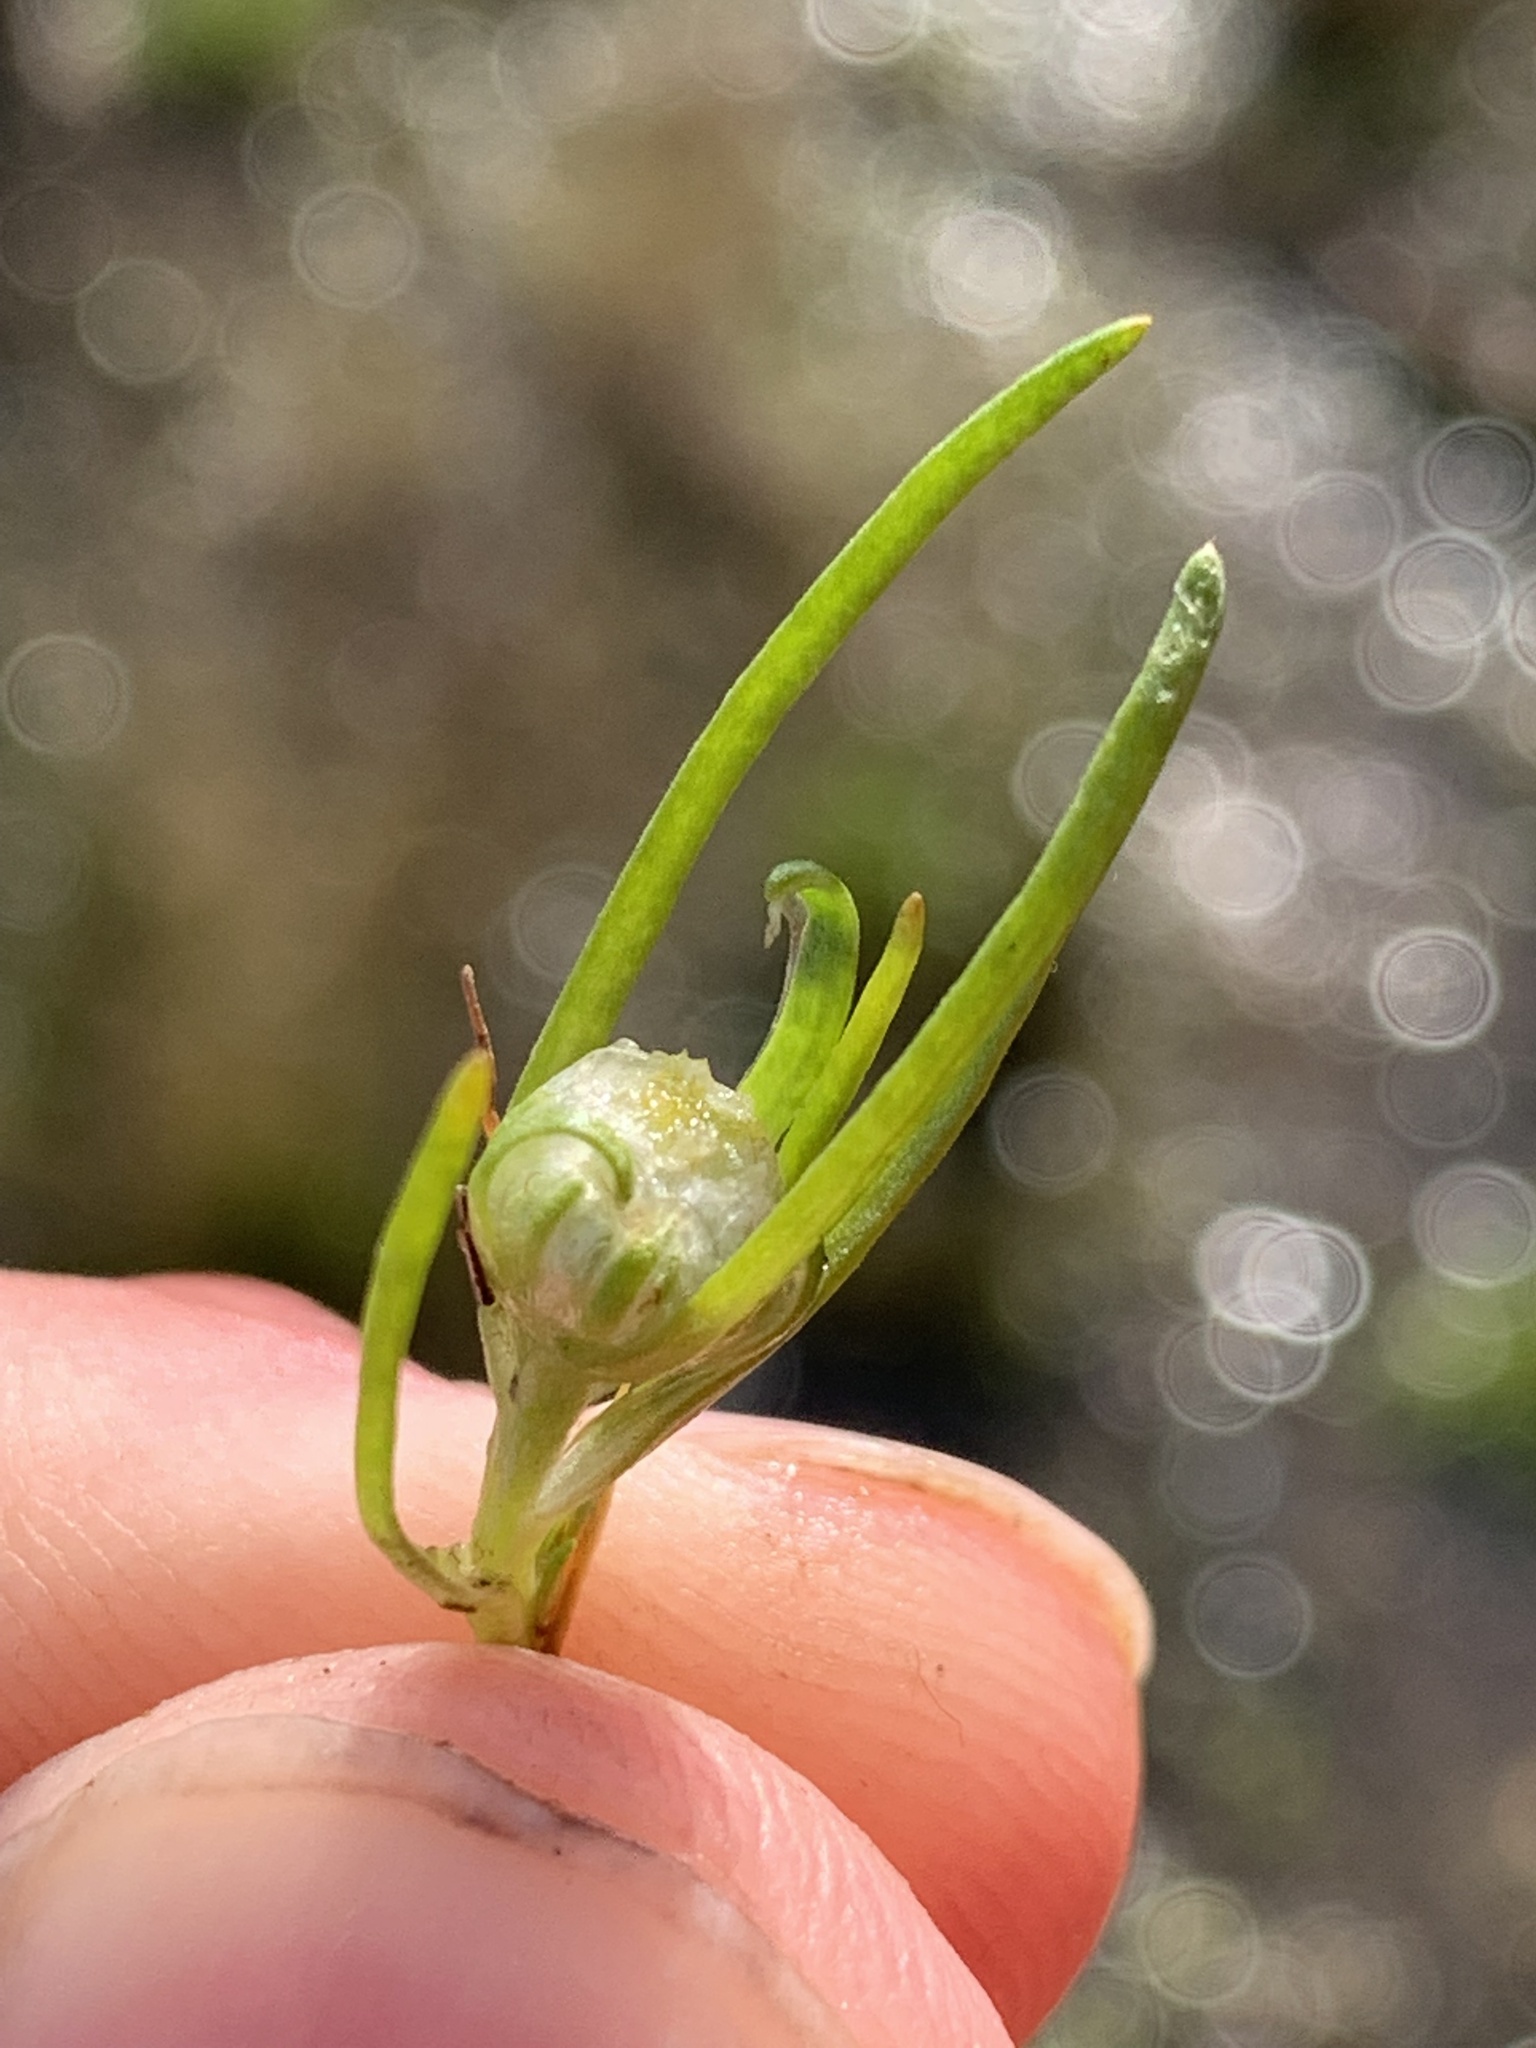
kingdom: Plantae
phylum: Tracheophyta
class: Magnoliopsida
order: Asterales
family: Asteraceae
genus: Myriocephalus
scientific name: Myriocephalus rhizocephalus
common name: Tufted woolly-heads
